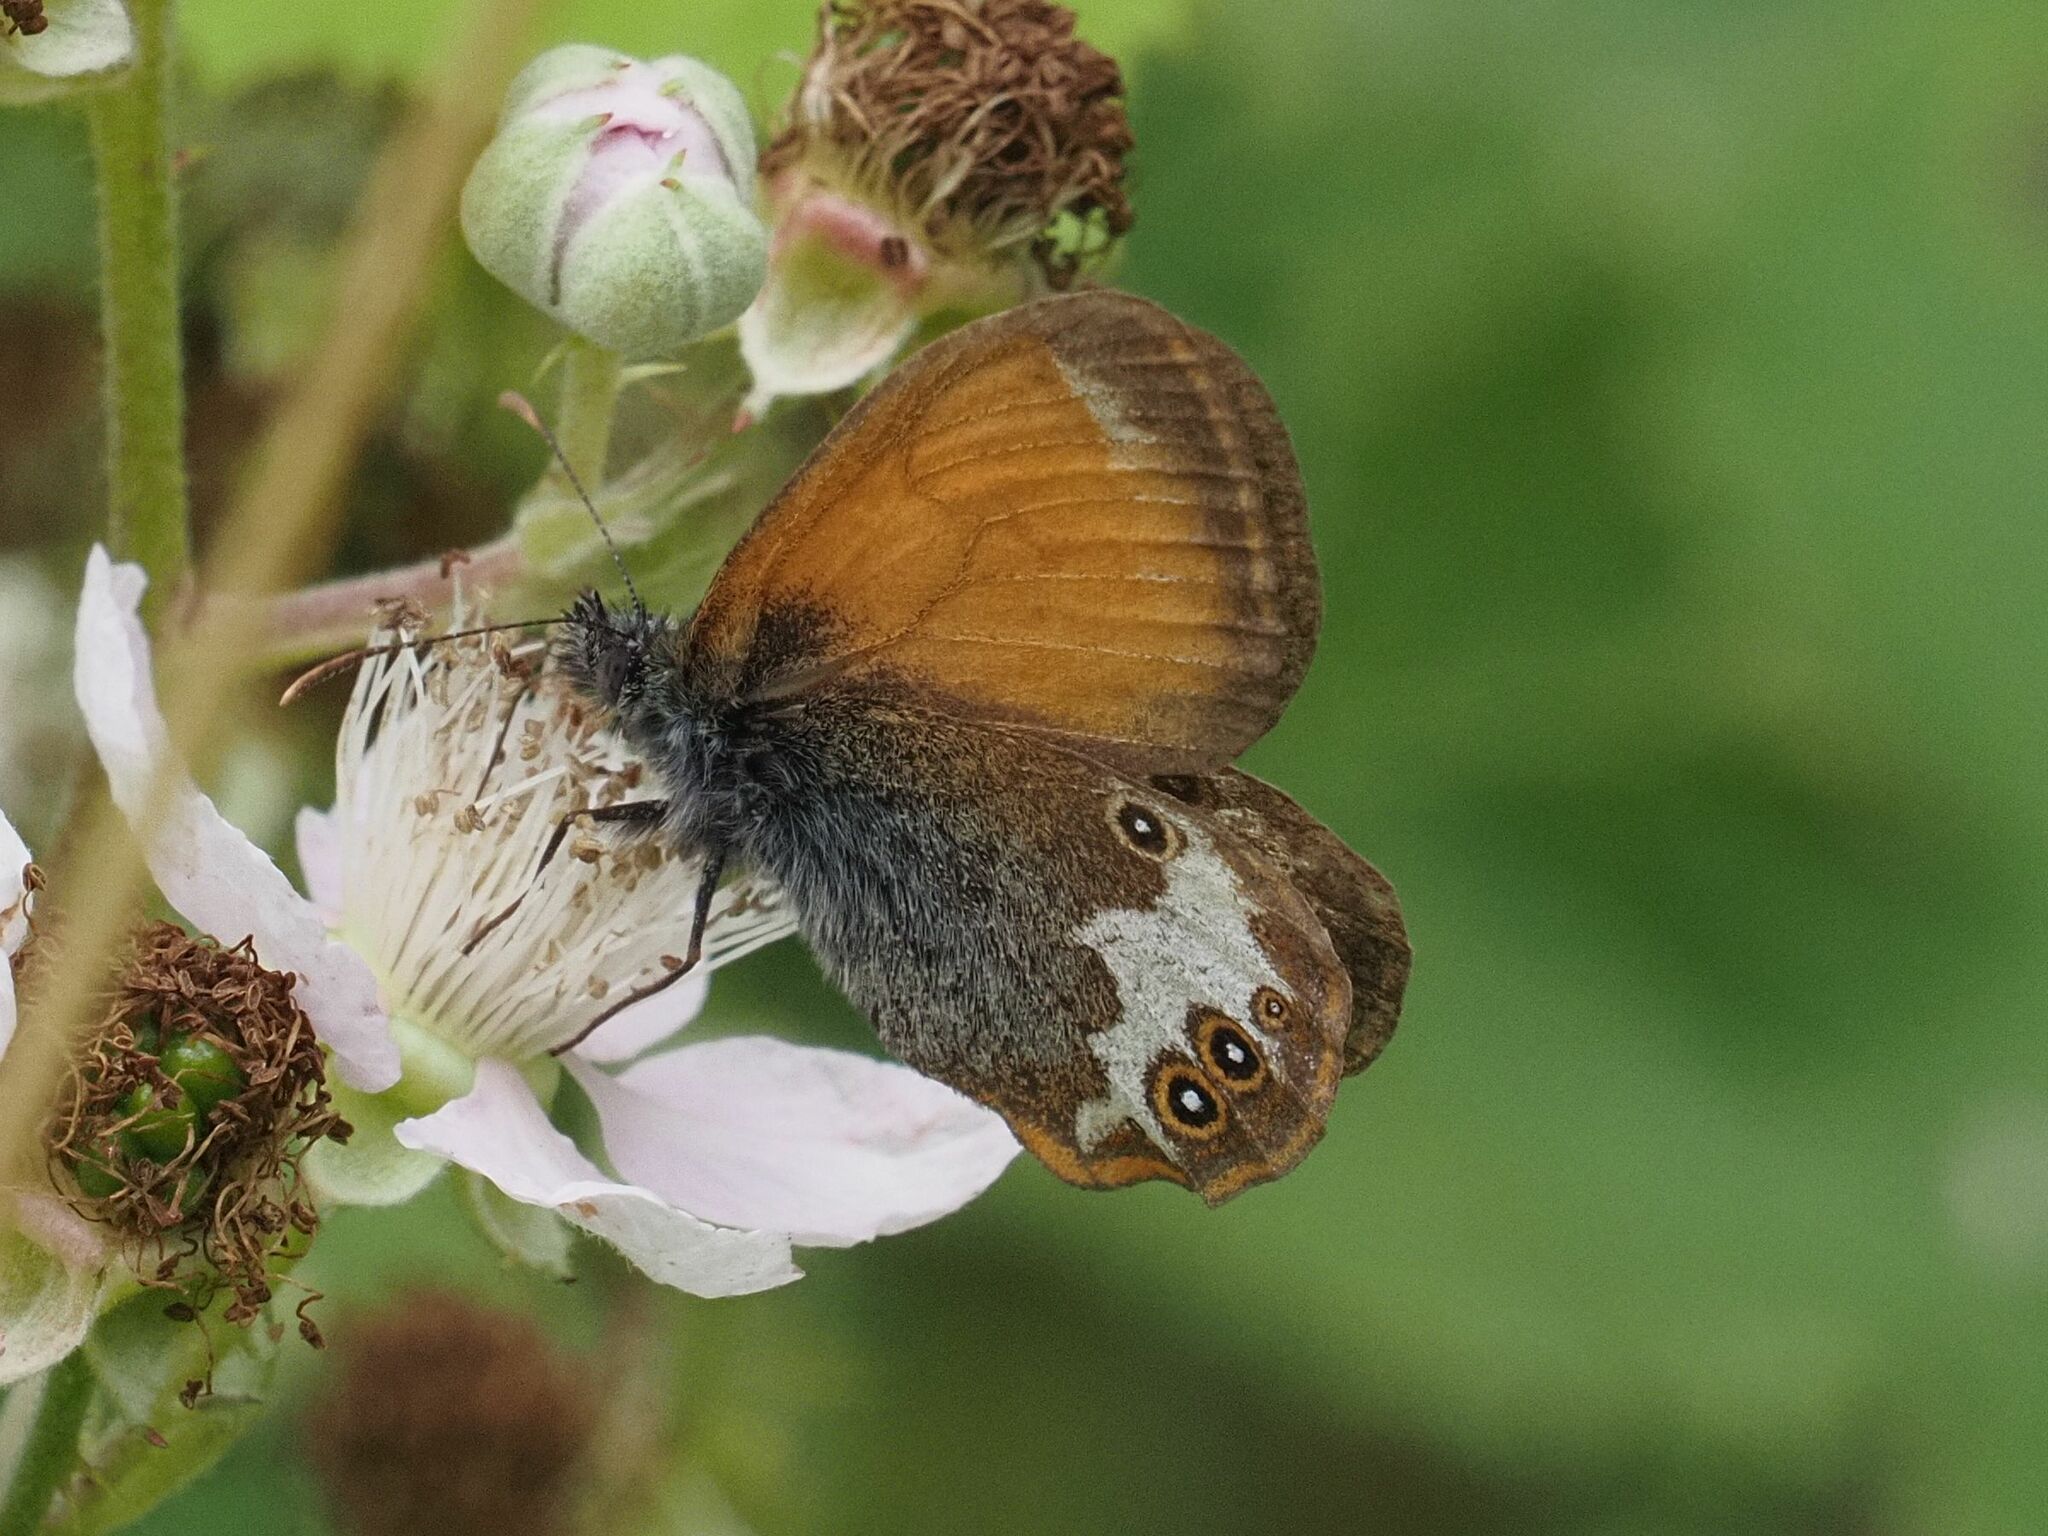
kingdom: Animalia
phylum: Arthropoda
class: Insecta
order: Lepidoptera
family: Nymphalidae
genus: Coenonympha
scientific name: Coenonympha arcania
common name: Pearly heath
